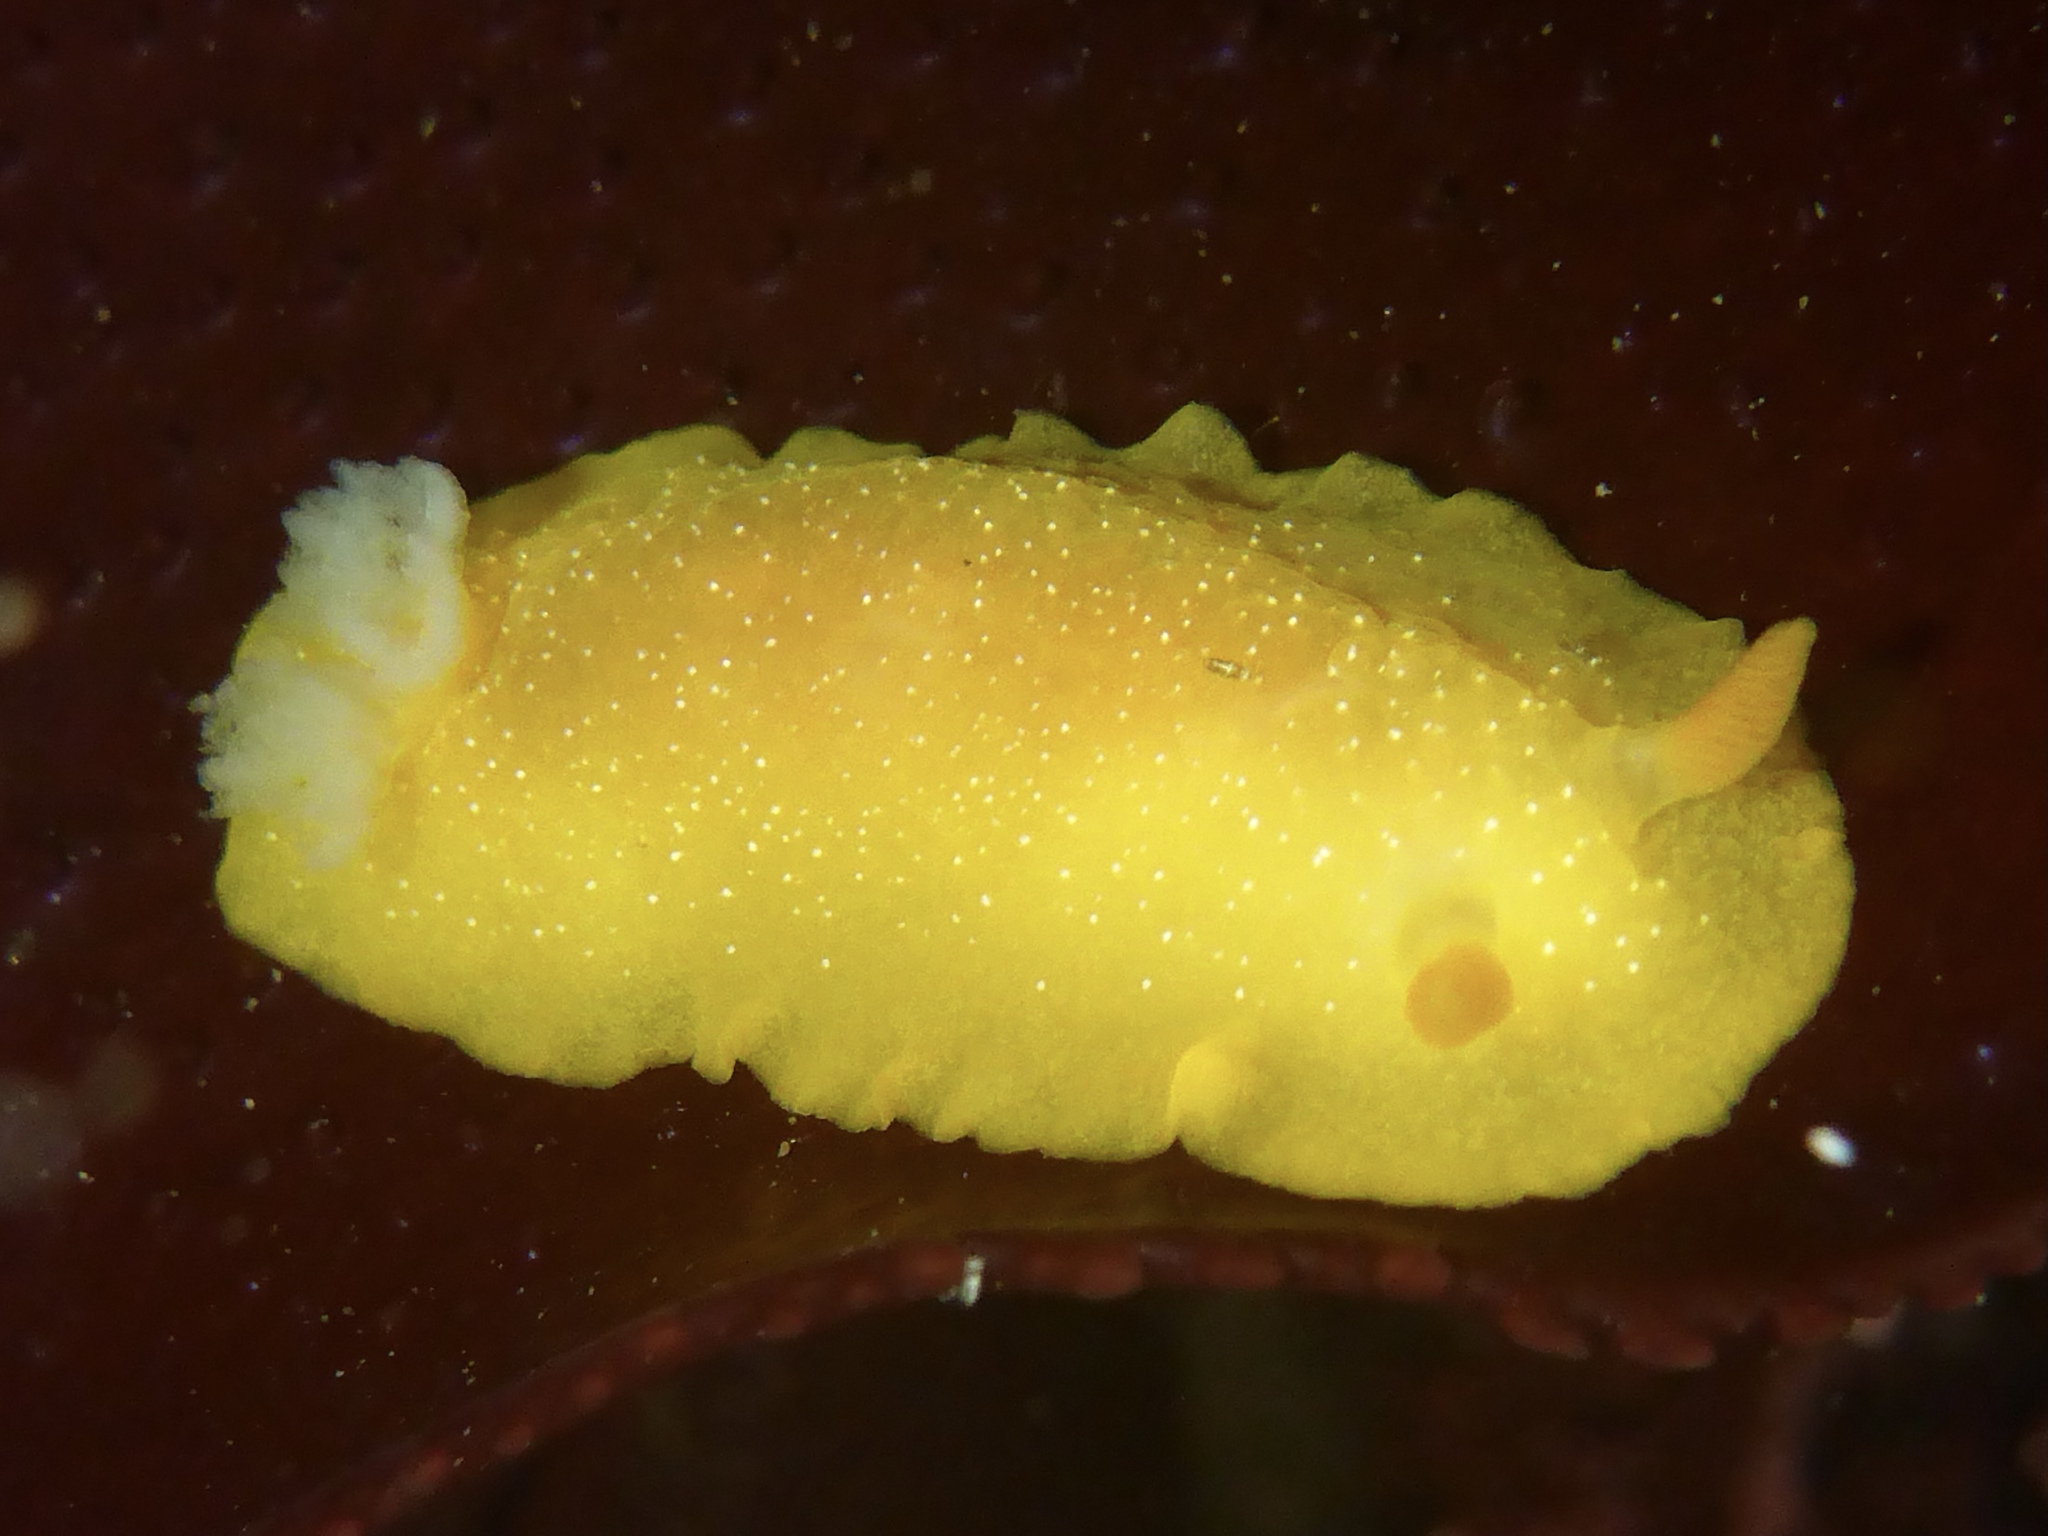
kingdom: Animalia
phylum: Mollusca
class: Gastropoda
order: Nudibranchia
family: Dendrodorididae
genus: Doriopsilla
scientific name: Doriopsilla fulva
